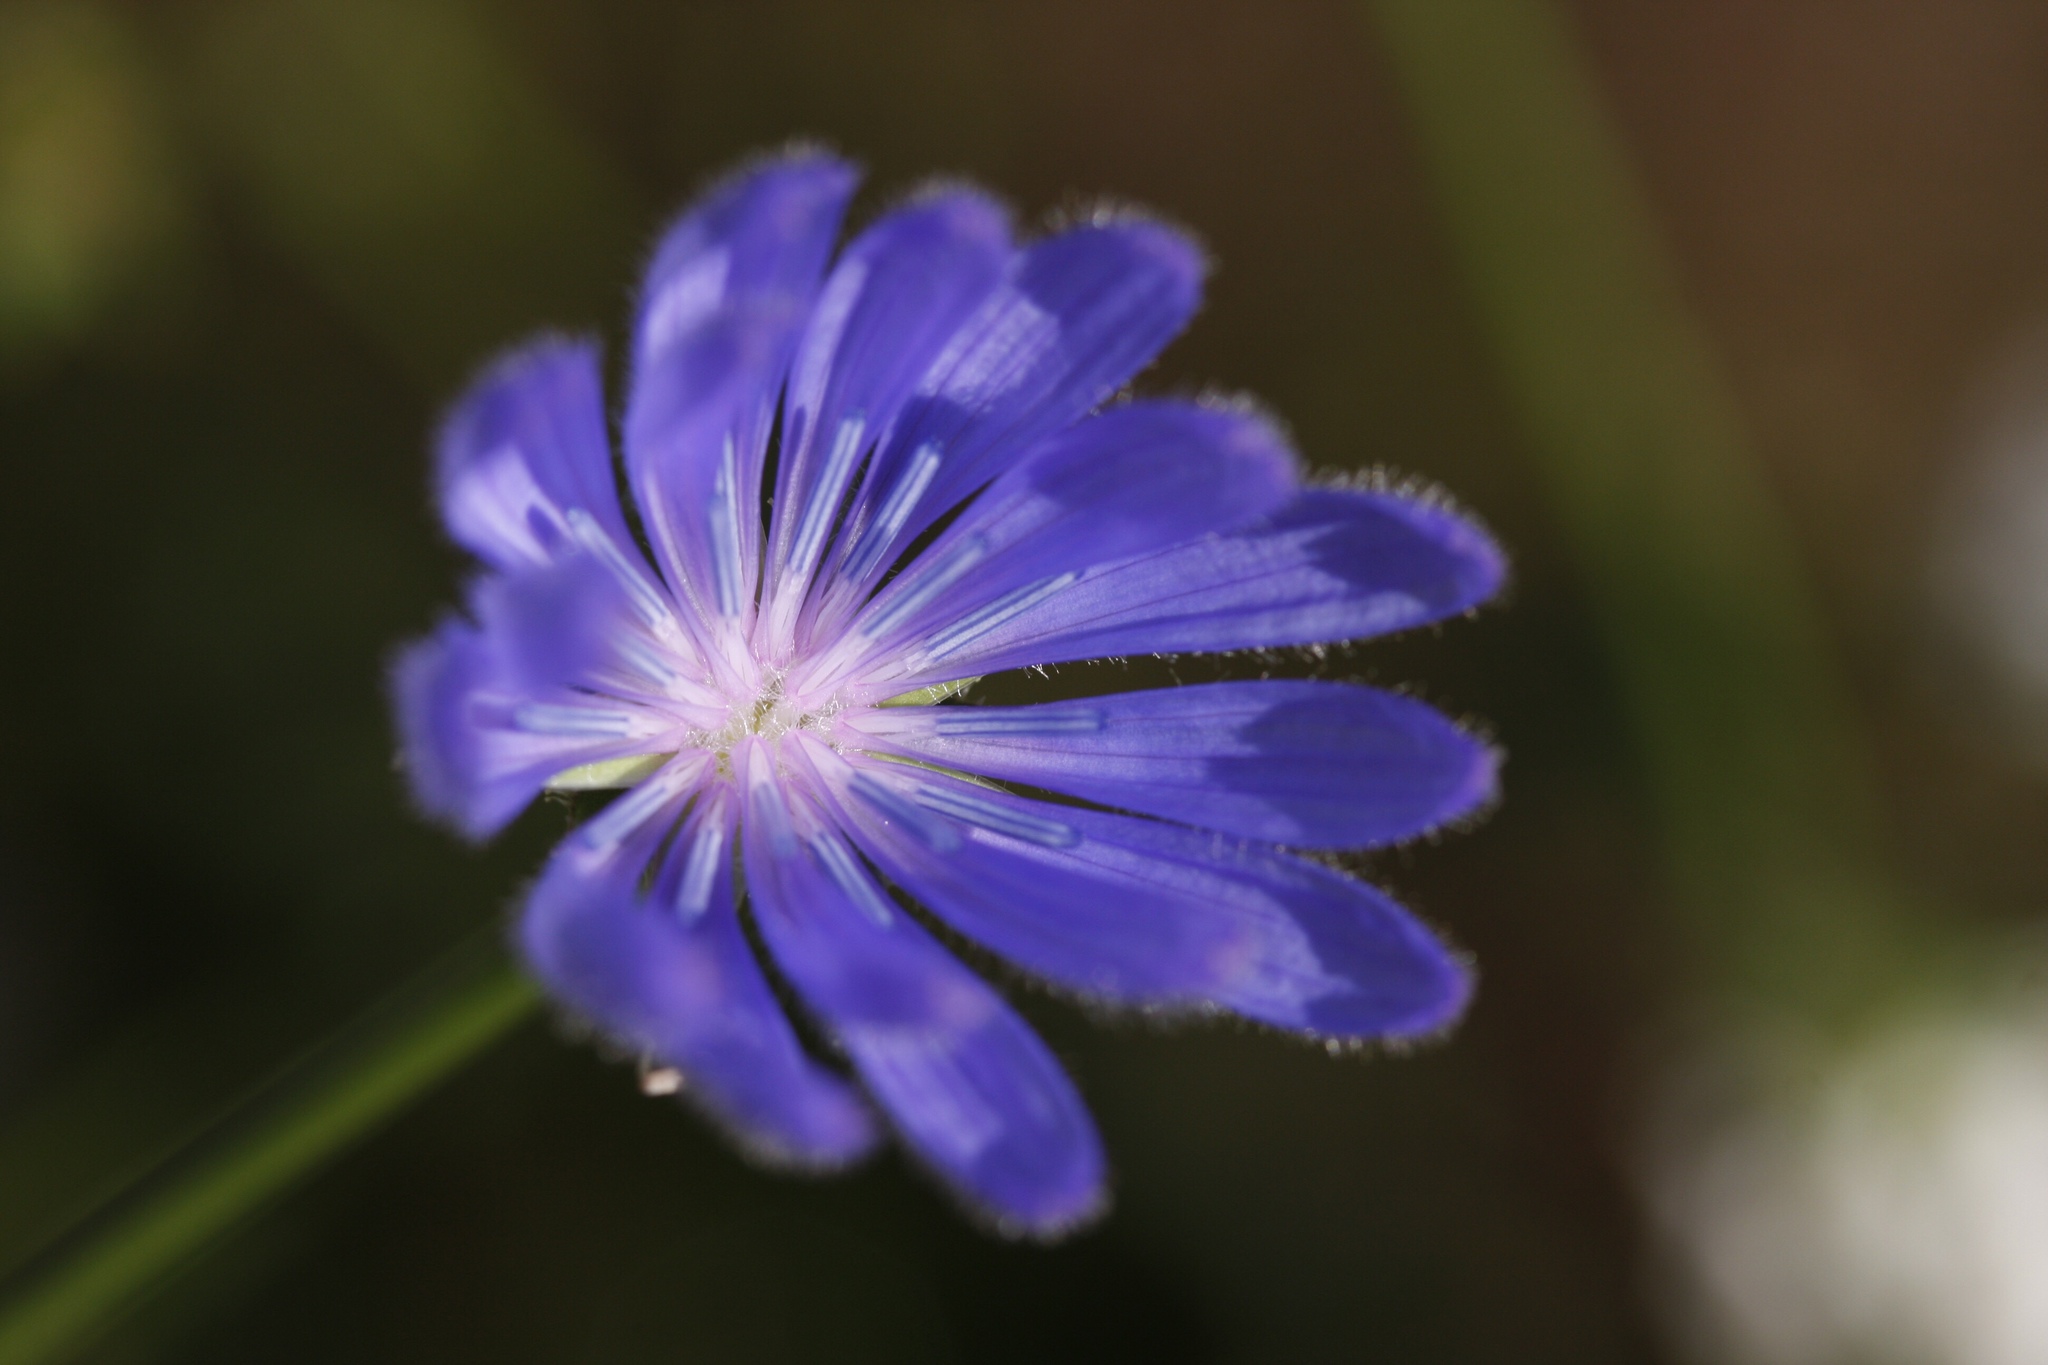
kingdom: Plantae
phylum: Tracheophyta
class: Magnoliopsida
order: Asterales
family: Asteraceae
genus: Cichorium
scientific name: Cichorium intybus
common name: Chicory
